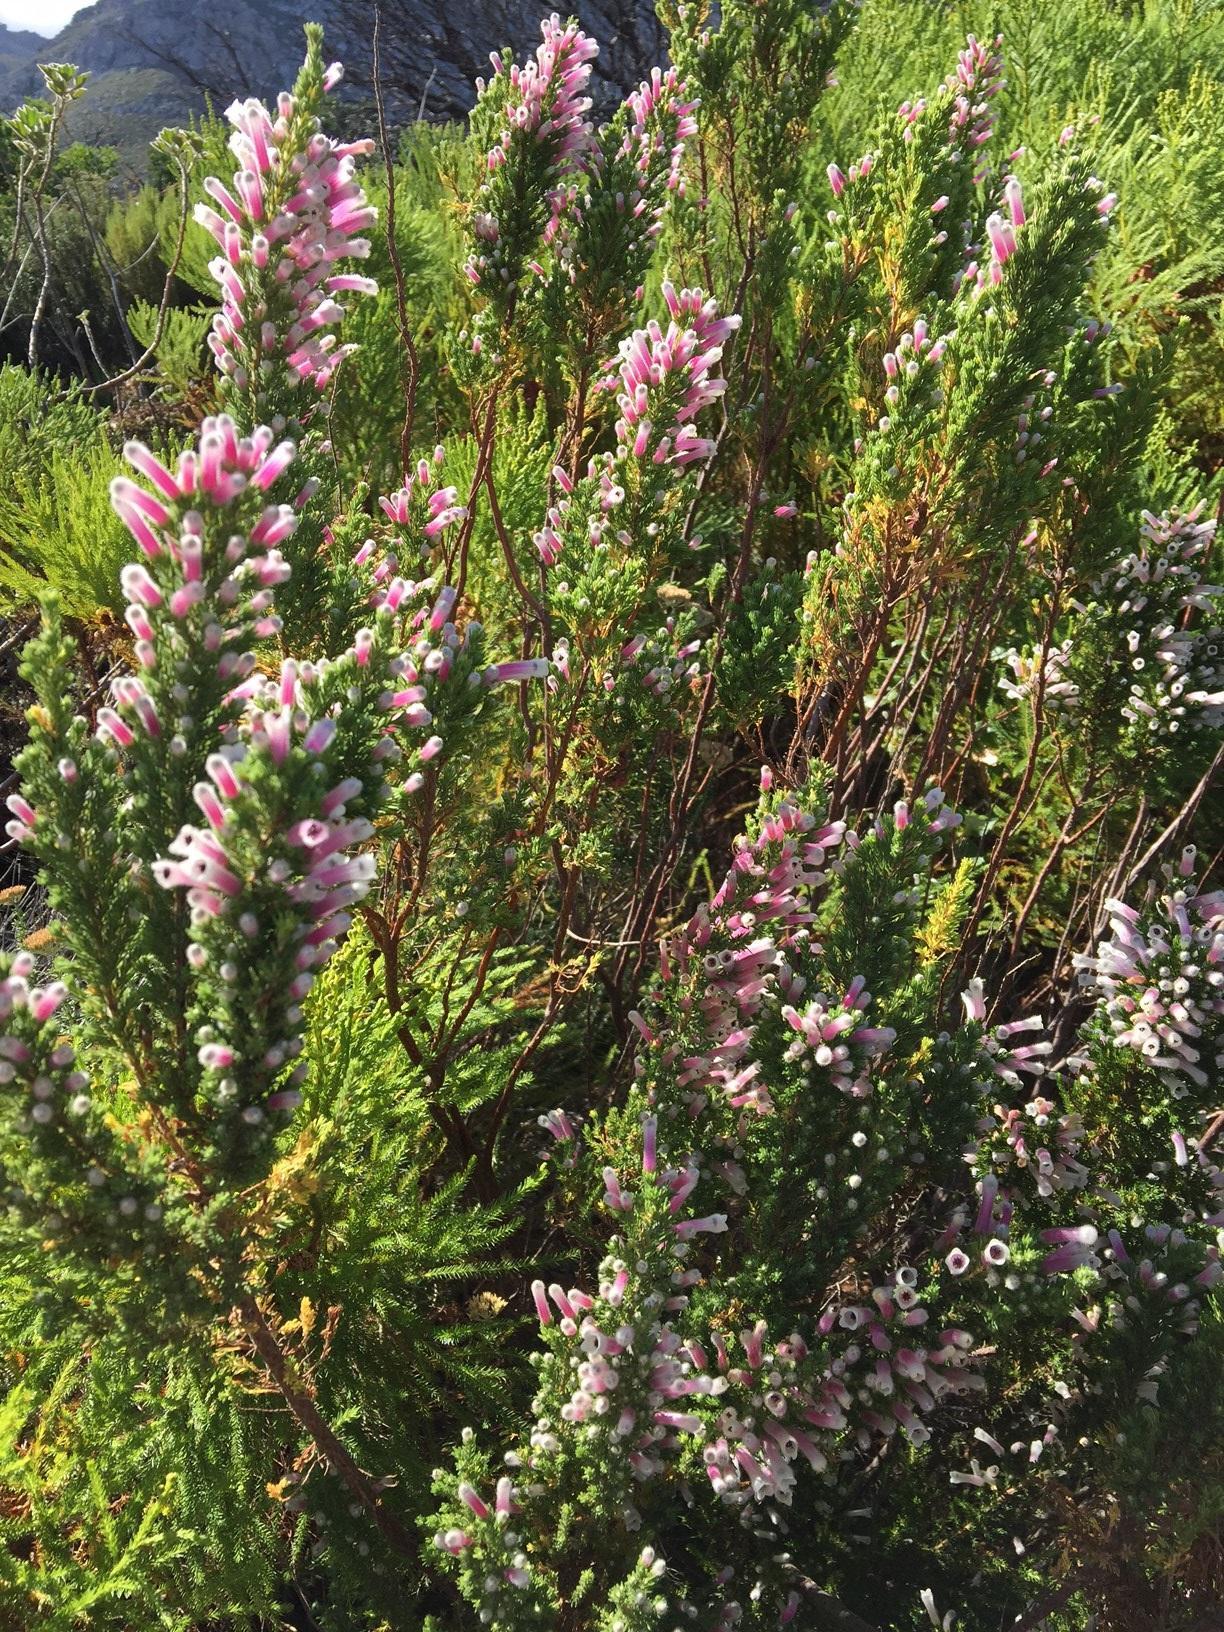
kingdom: Plantae
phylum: Tracheophyta
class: Magnoliopsida
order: Ericales
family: Ericaceae
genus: Erica
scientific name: Erica perspicua
